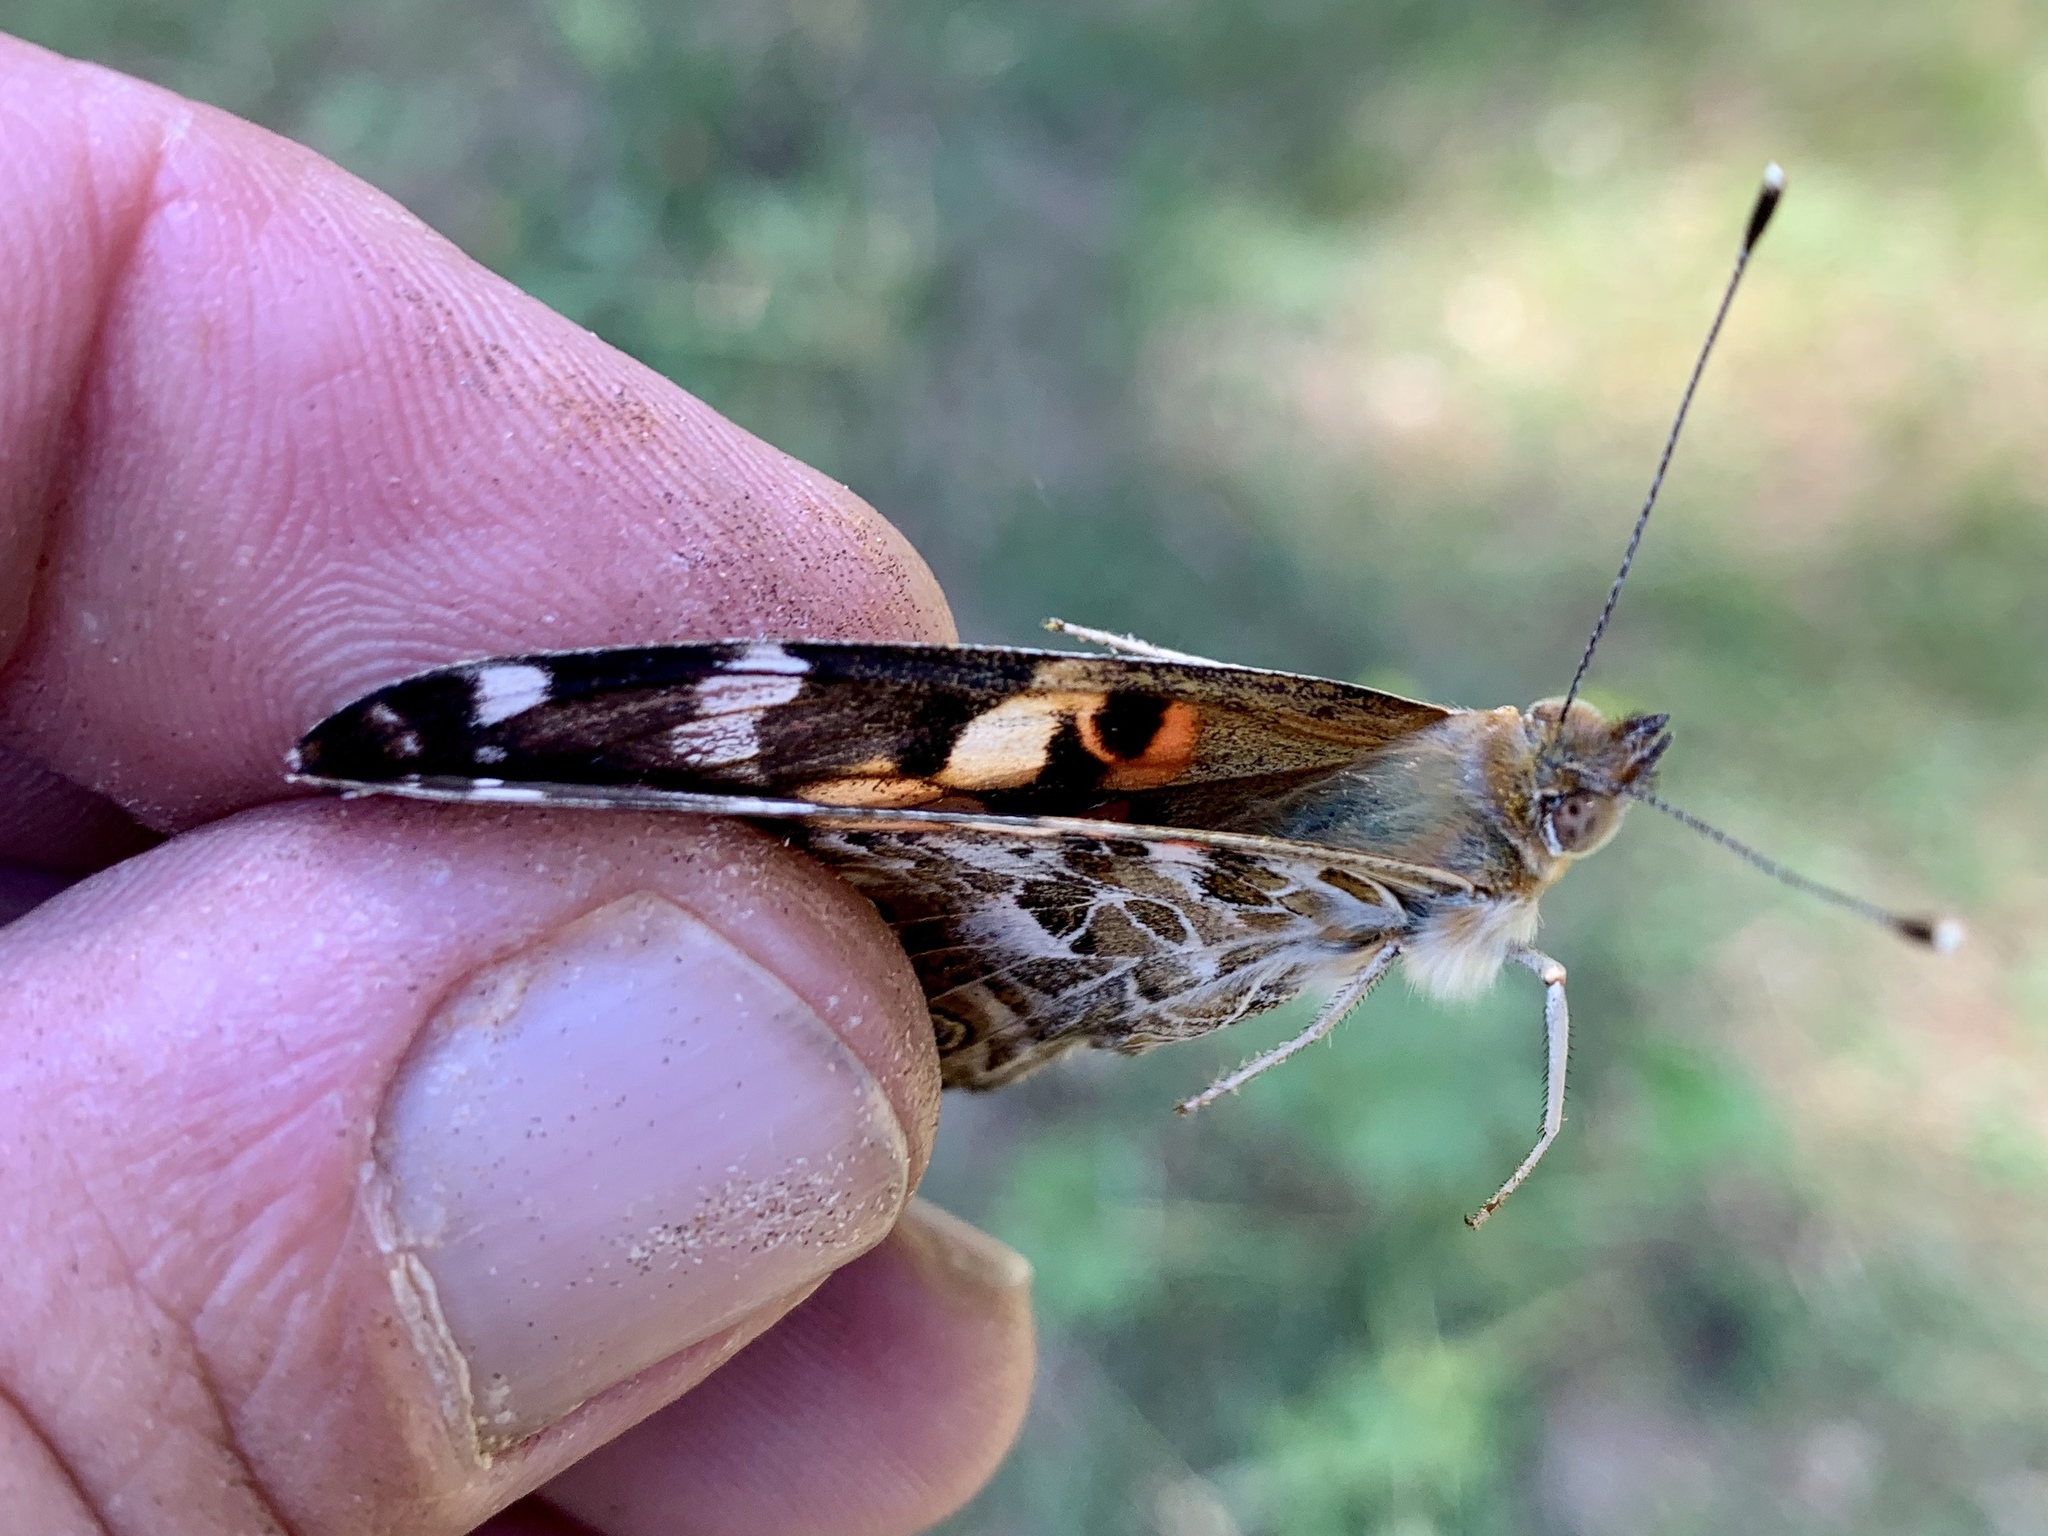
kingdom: Animalia
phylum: Arthropoda
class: Insecta
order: Lepidoptera
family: Nymphalidae
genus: Vanessa
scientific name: Vanessa cardui
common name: Painted lady
